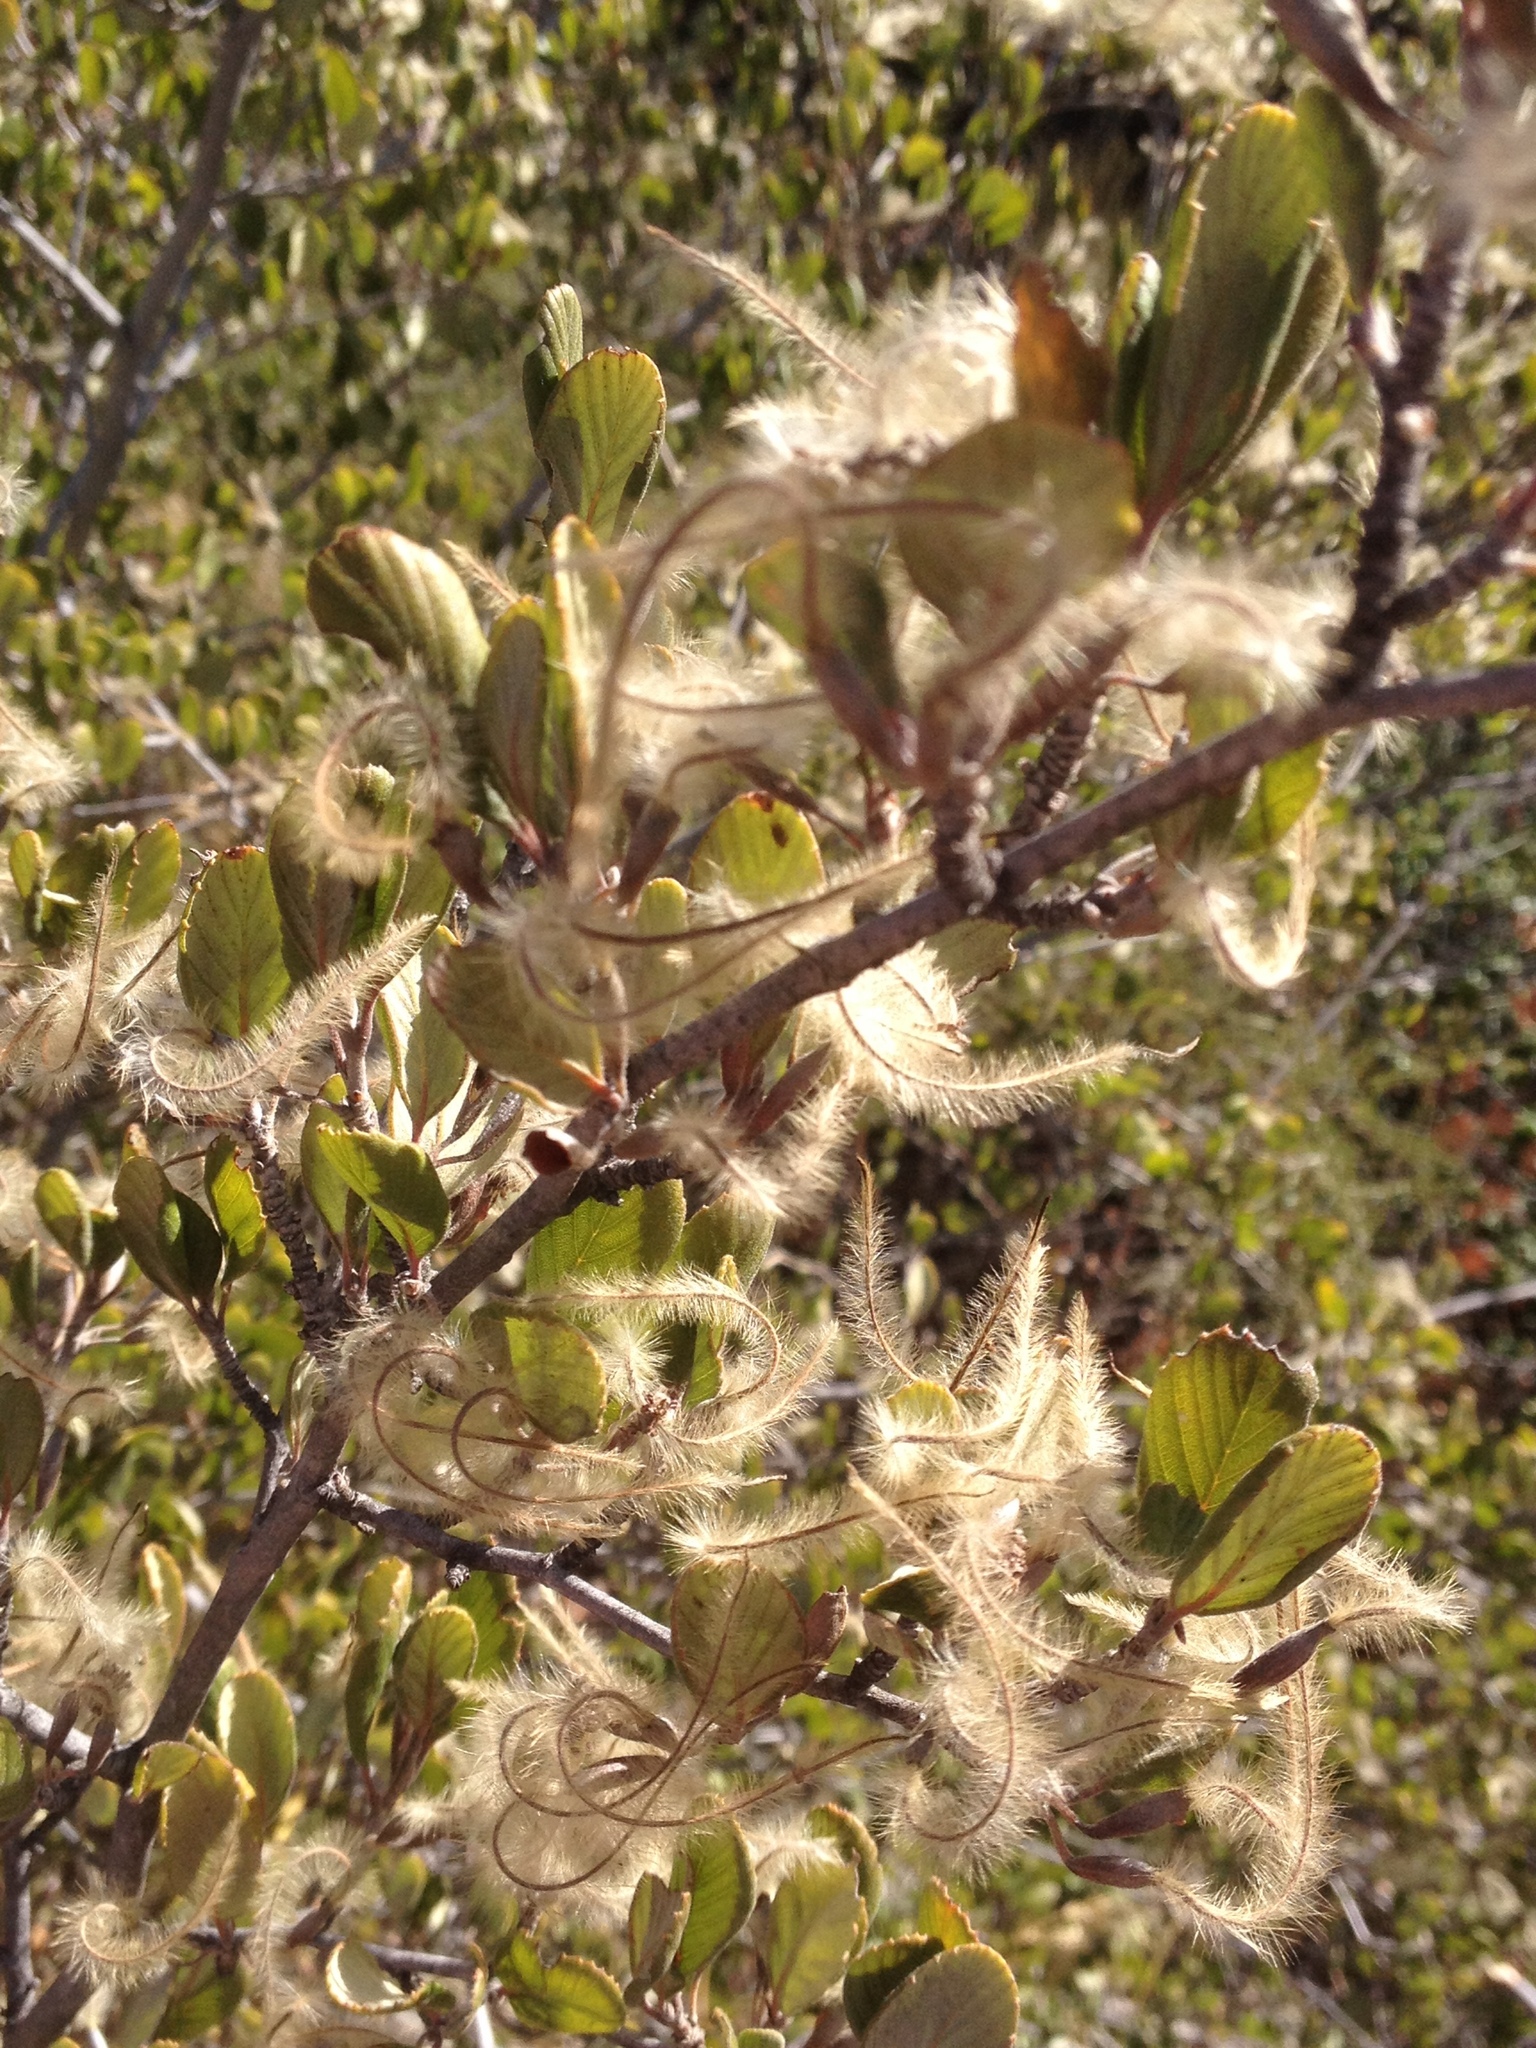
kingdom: Plantae
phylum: Tracheophyta
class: Magnoliopsida
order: Rosales
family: Rosaceae
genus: Cercocarpus
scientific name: Cercocarpus betuloides
